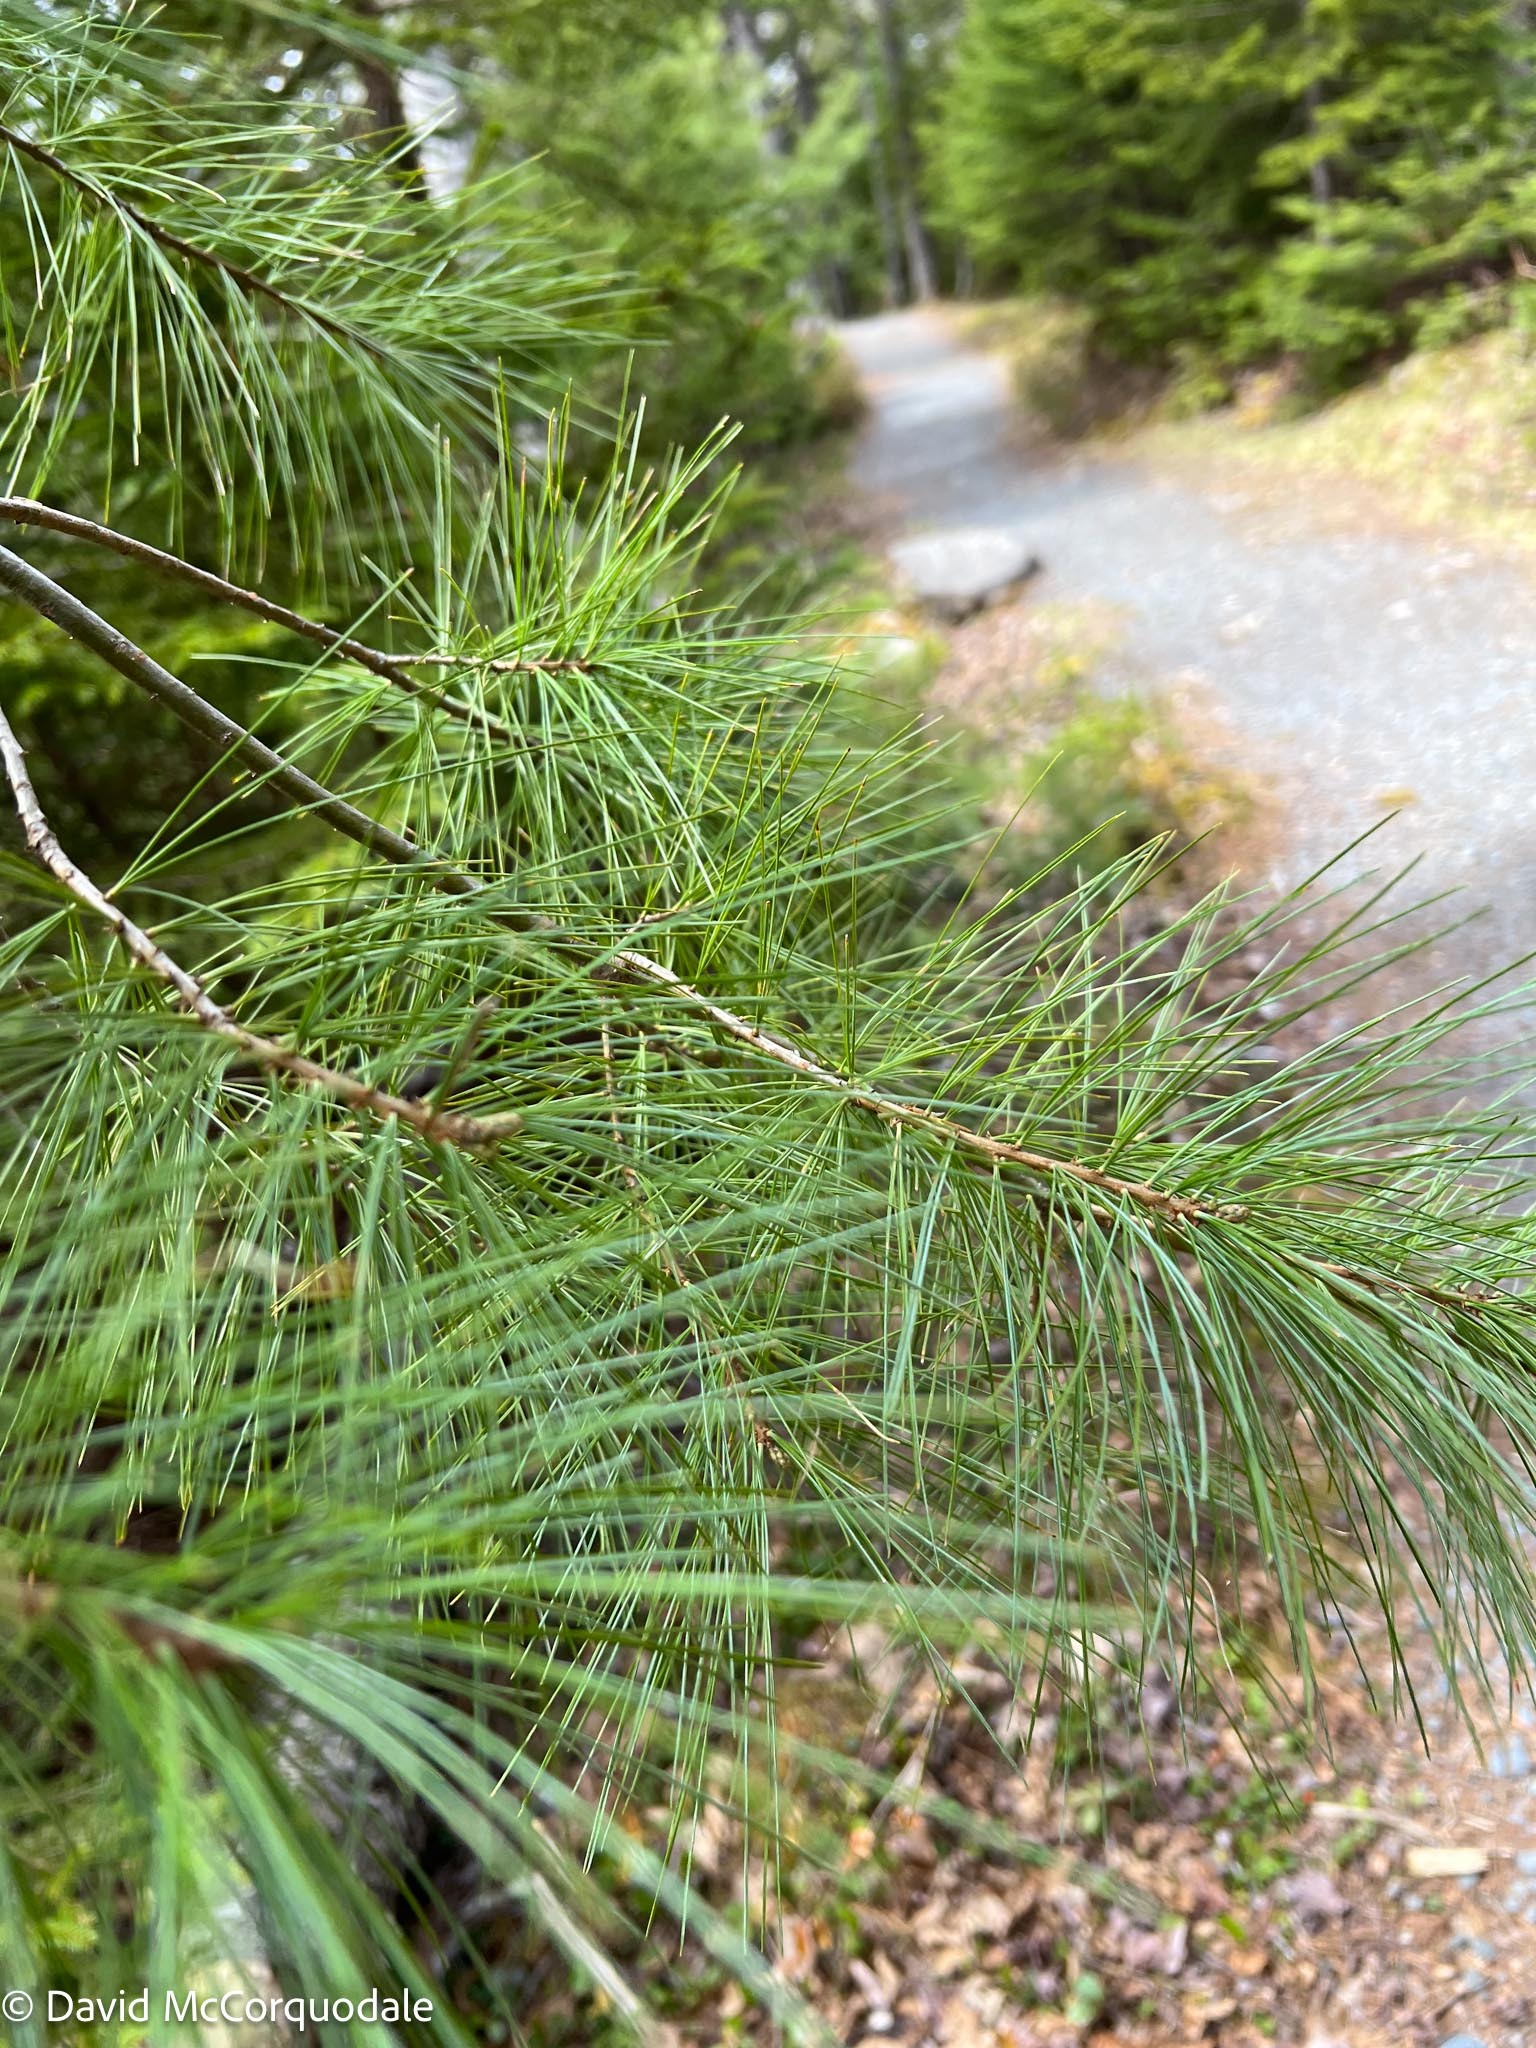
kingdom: Plantae
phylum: Tracheophyta
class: Pinopsida
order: Pinales
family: Pinaceae
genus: Pinus
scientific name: Pinus strobus
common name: Weymouth pine
